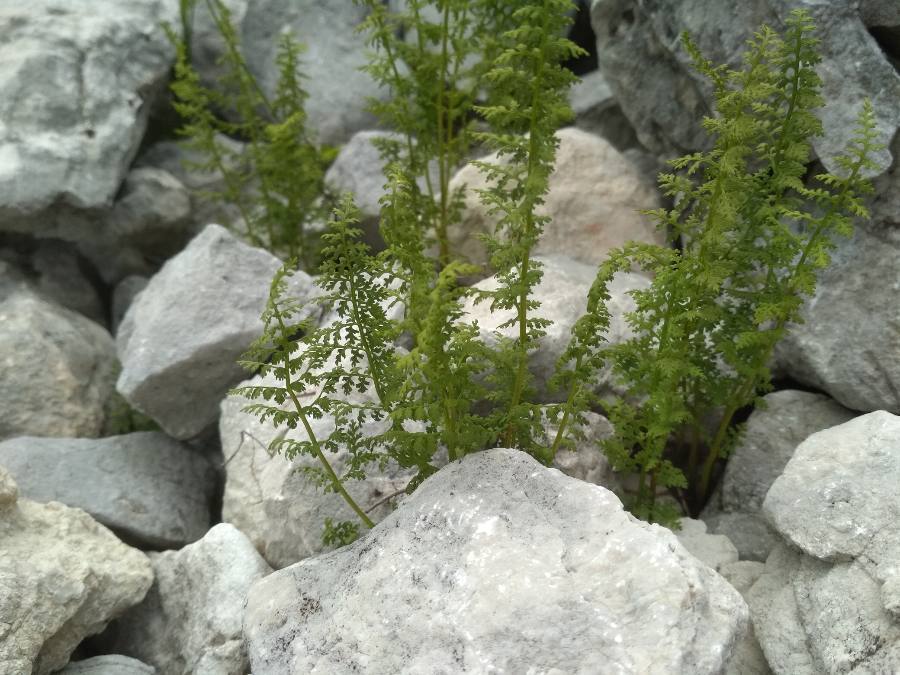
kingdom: Plantae
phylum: Tracheophyta
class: Polypodiopsida
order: Polypodiales
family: Cystopteridaceae
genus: Cystopteris
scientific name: Cystopteris fragilis
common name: Brittle bladder fern
